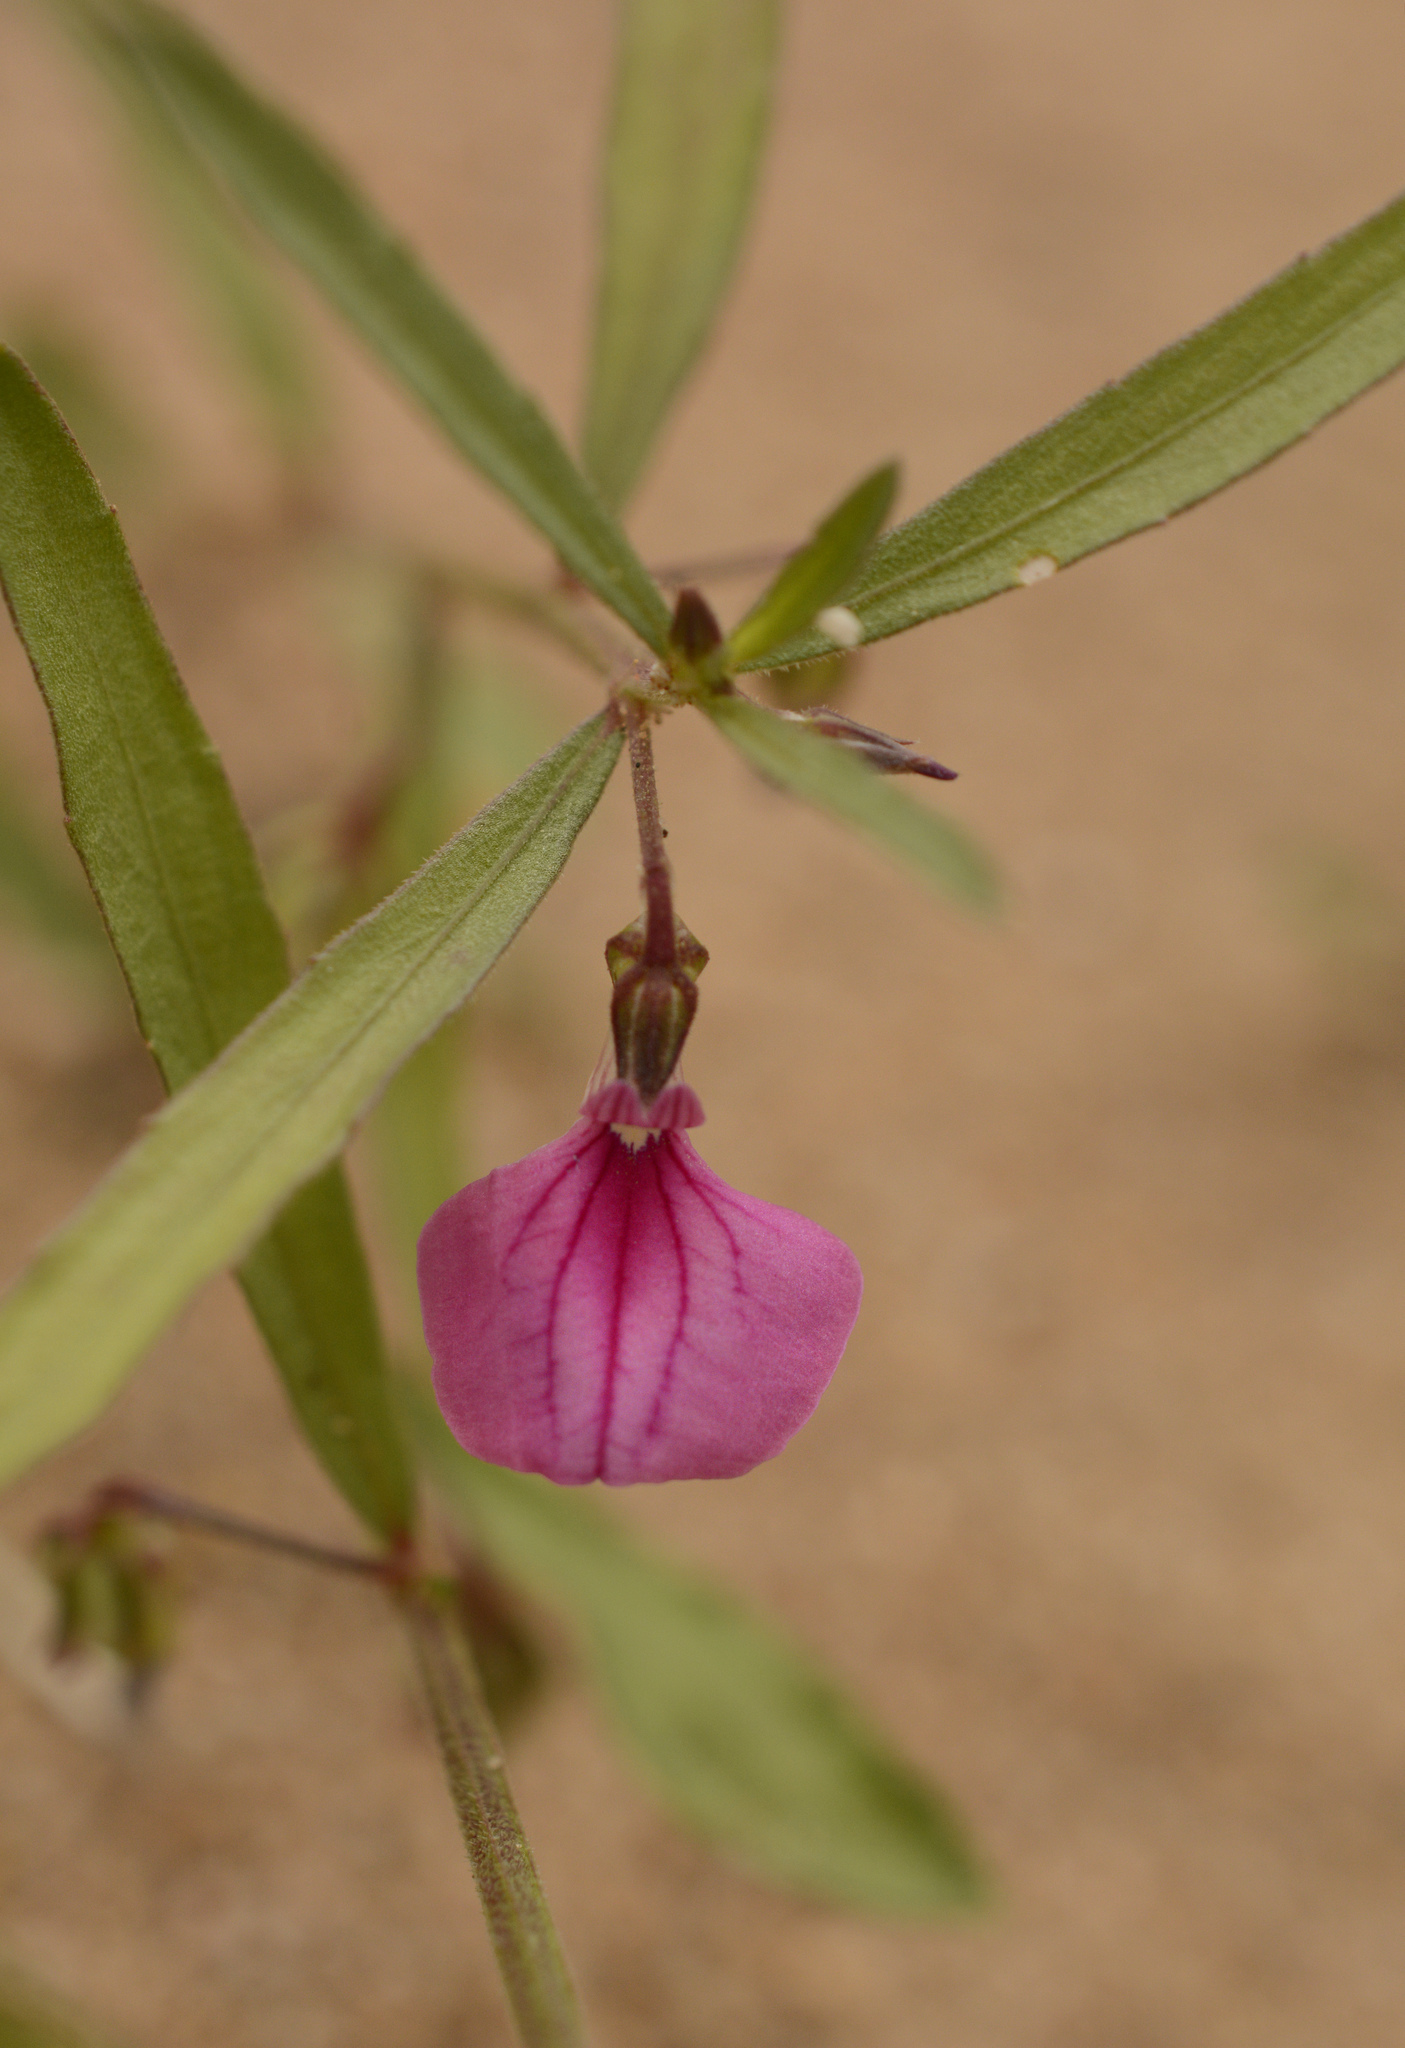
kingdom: Plantae
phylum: Tracheophyta
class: Magnoliopsida
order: Malpighiales
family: Violaceae
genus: Pigea
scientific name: Pigea enneasperma
